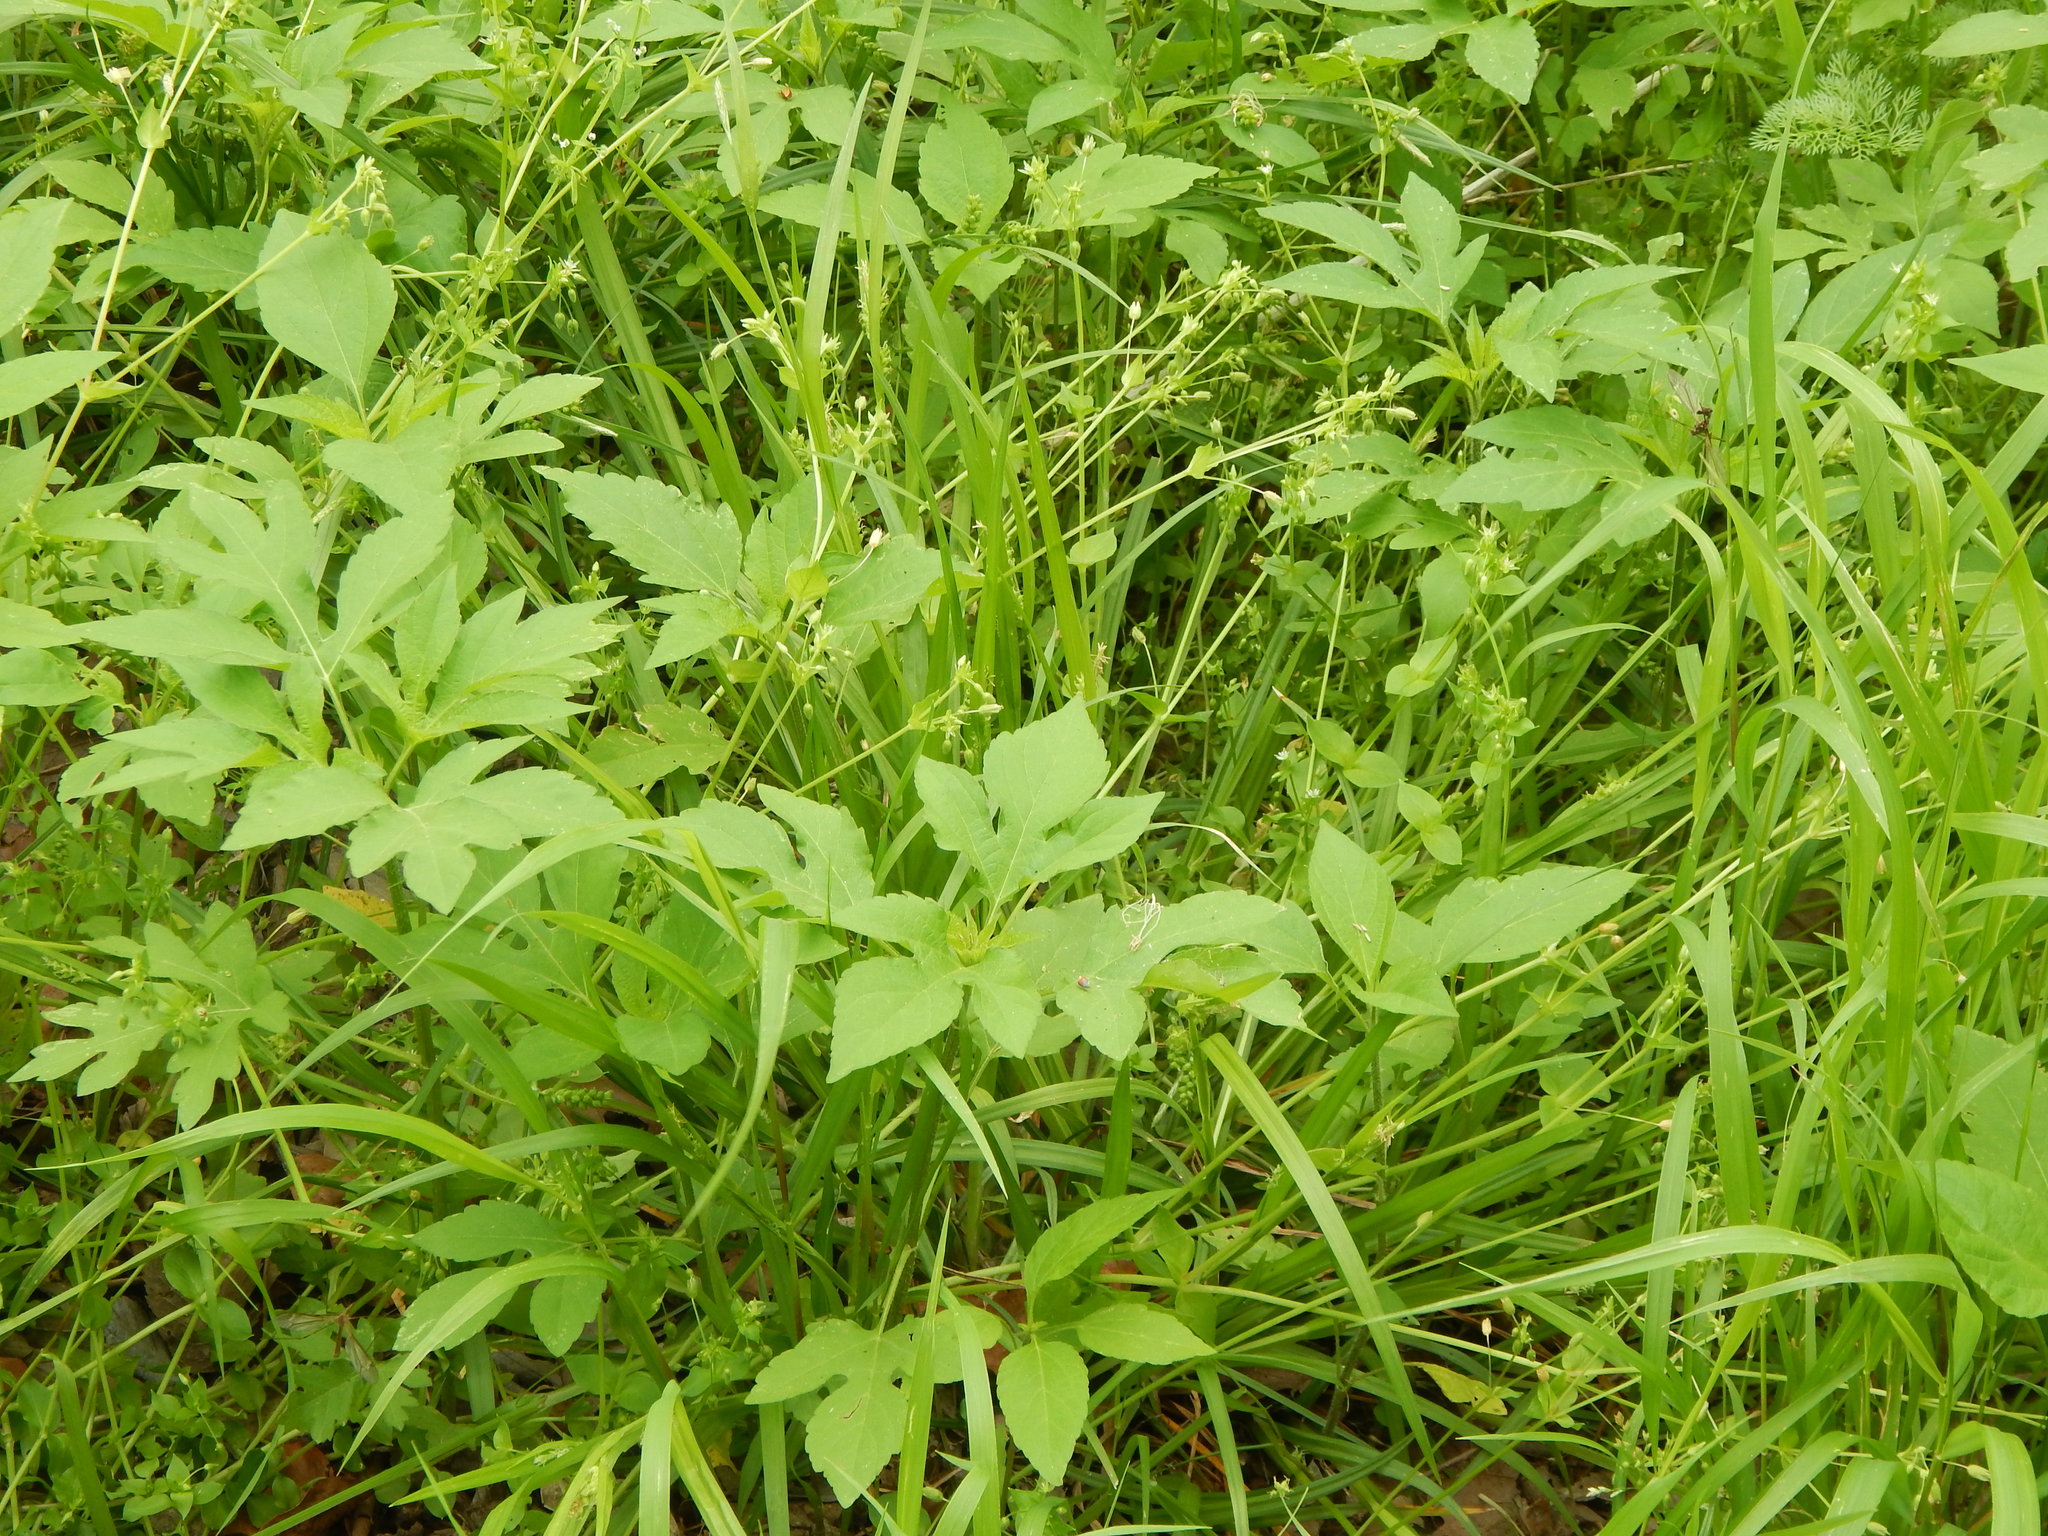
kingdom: Plantae
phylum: Tracheophyta
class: Magnoliopsida
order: Asterales
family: Asteraceae
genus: Ambrosia
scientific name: Ambrosia trifida
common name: Giant ragweed
